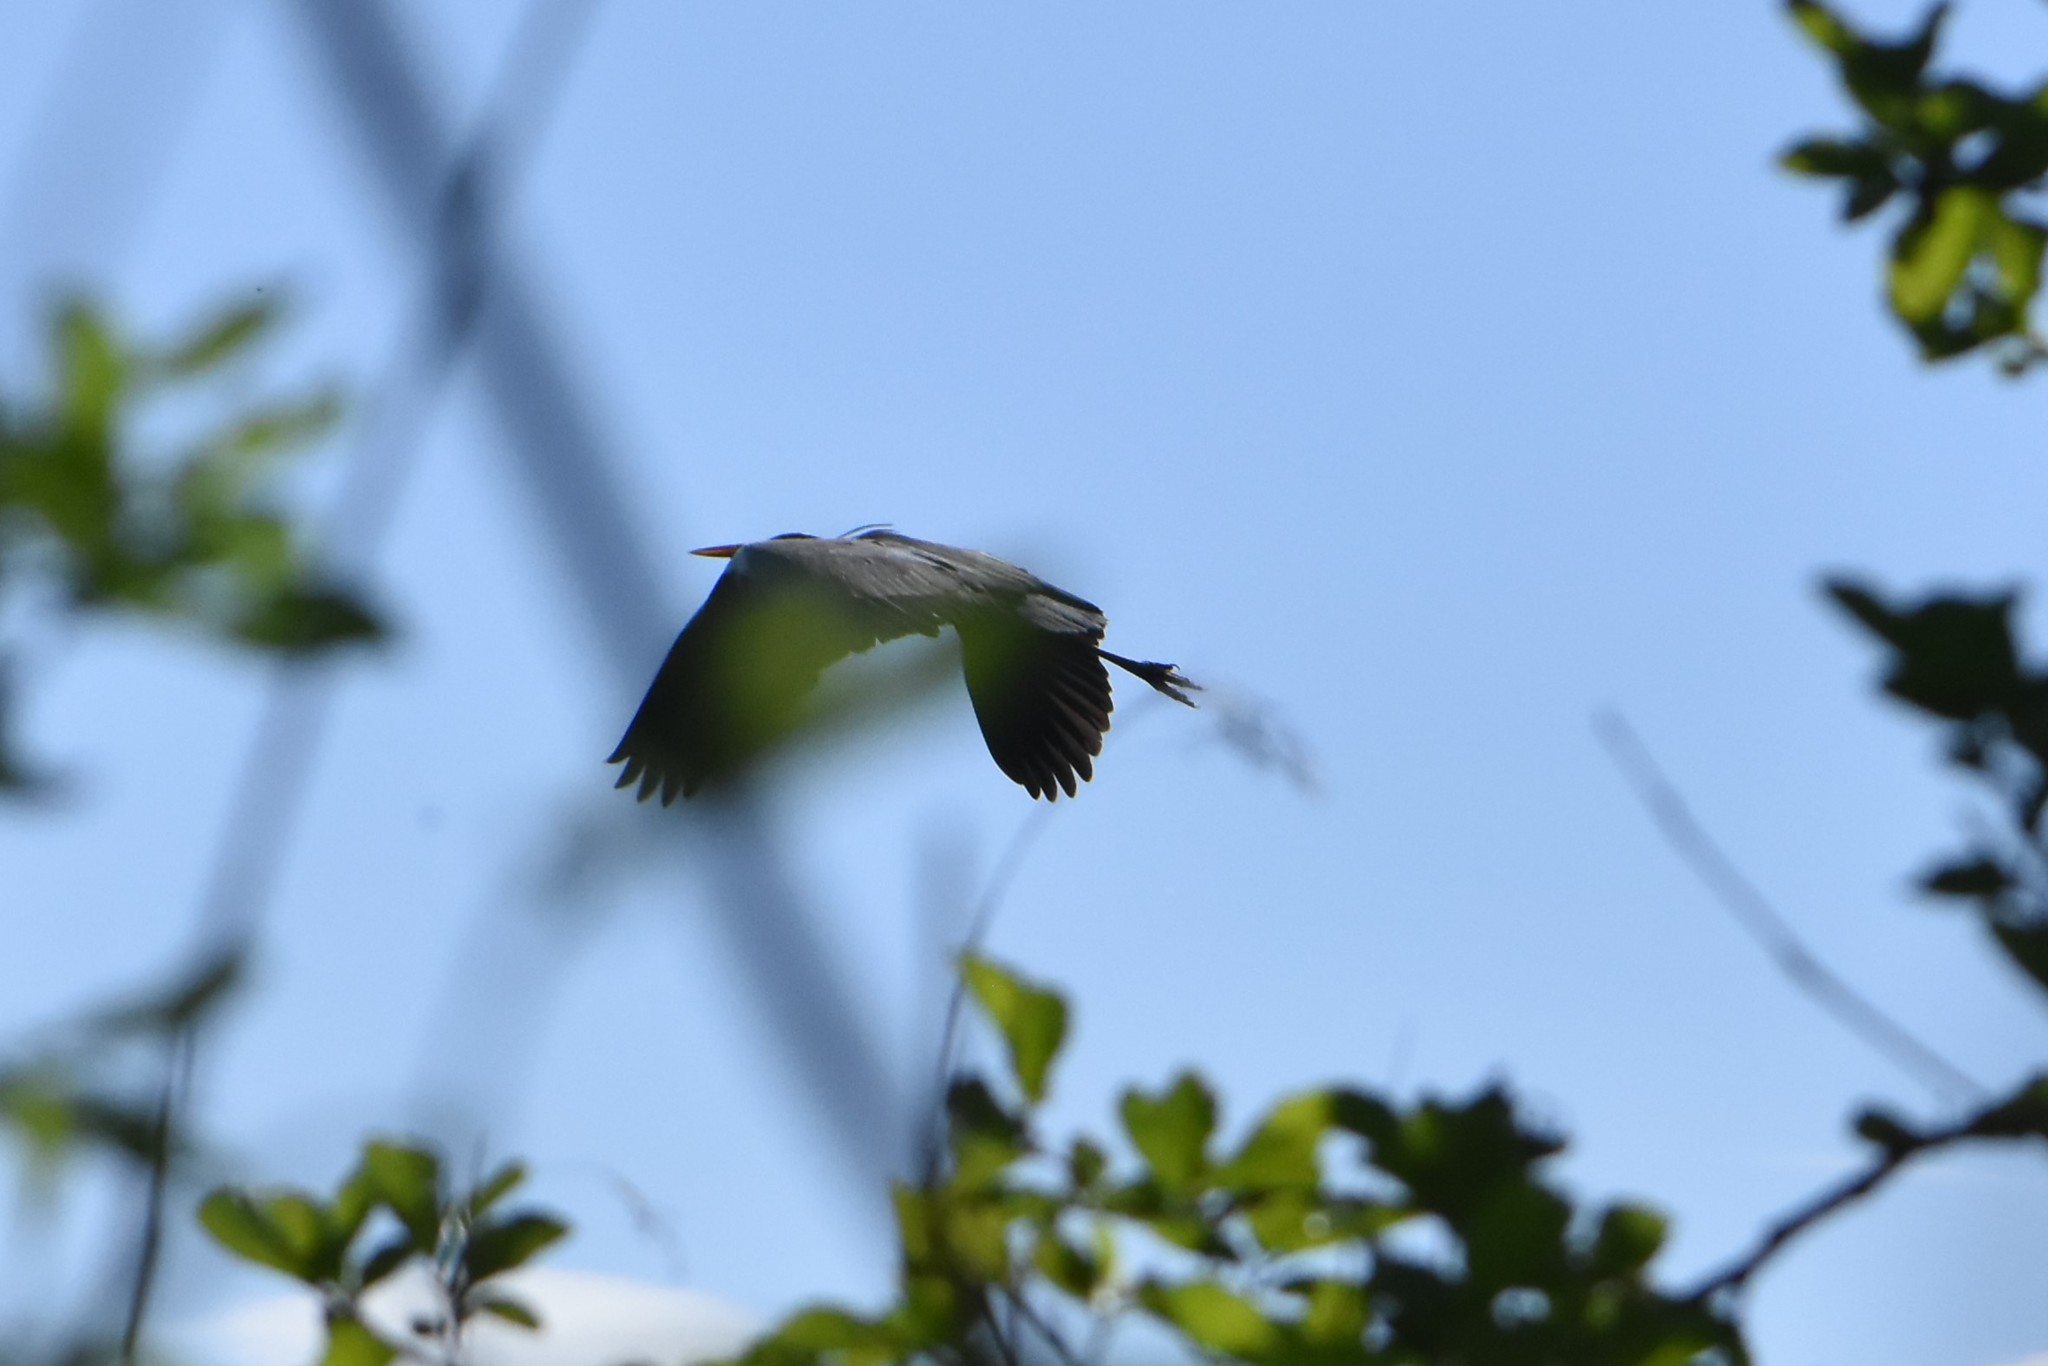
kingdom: Animalia
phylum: Chordata
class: Aves
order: Pelecaniformes
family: Ardeidae
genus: Ardea
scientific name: Ardea cinerea
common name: Grey heron
